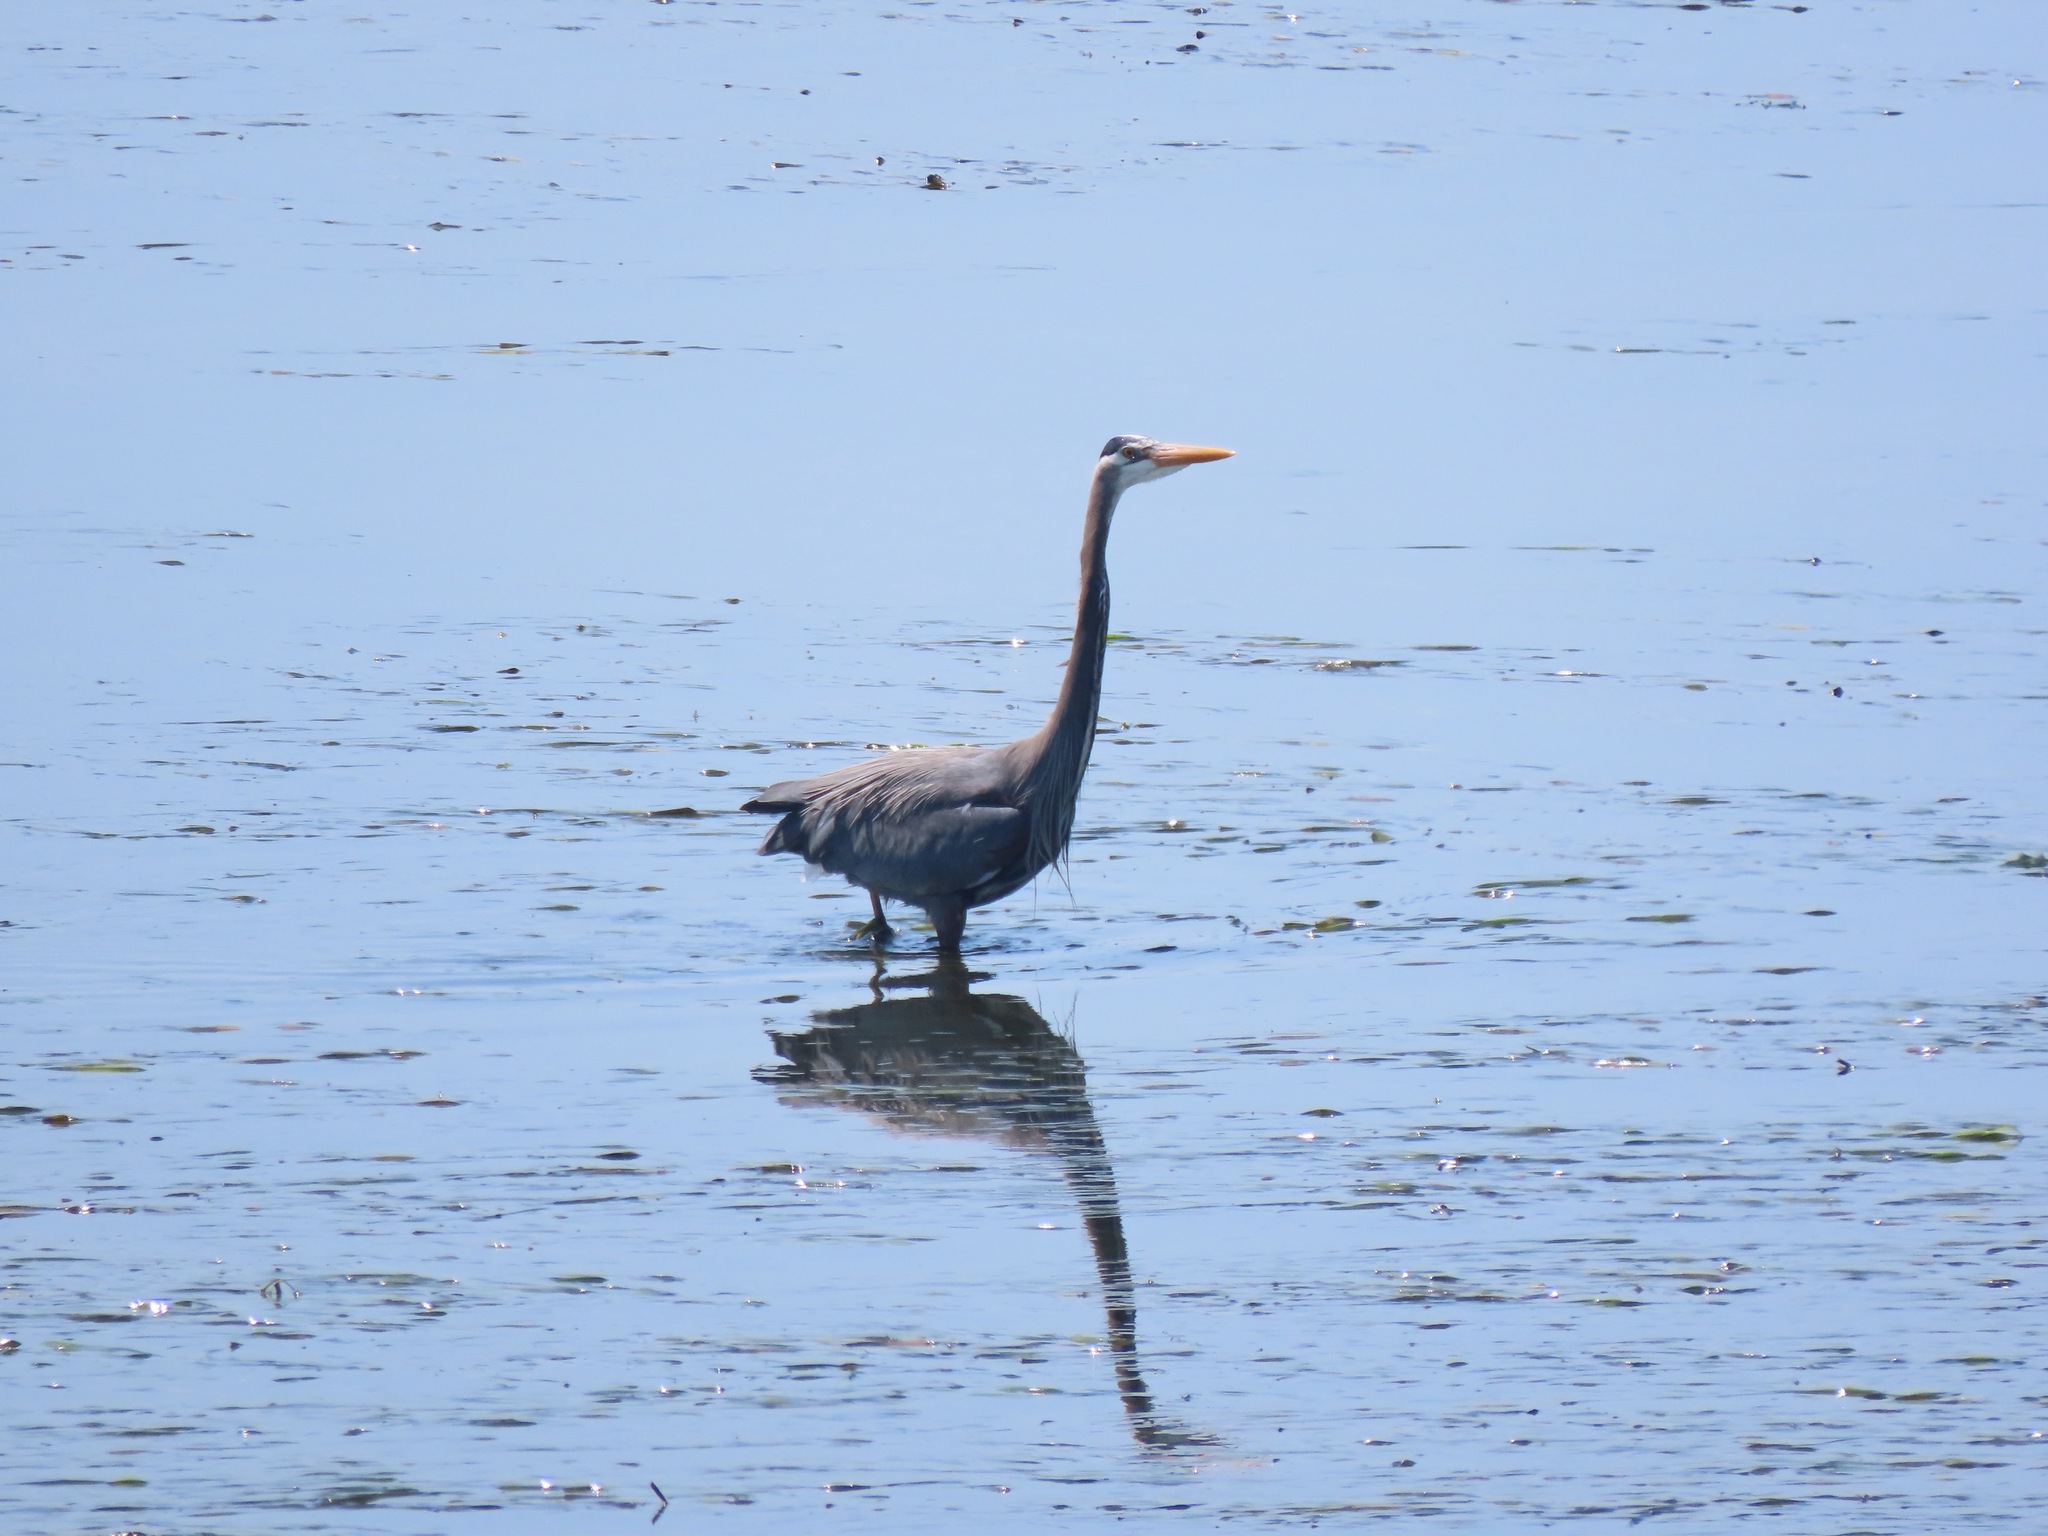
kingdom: Animalia
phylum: Chordata
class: Aves
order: Pelecaniformes
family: Ardeidae
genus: Ardea
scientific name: Ardea herodias
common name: Great blue heron
